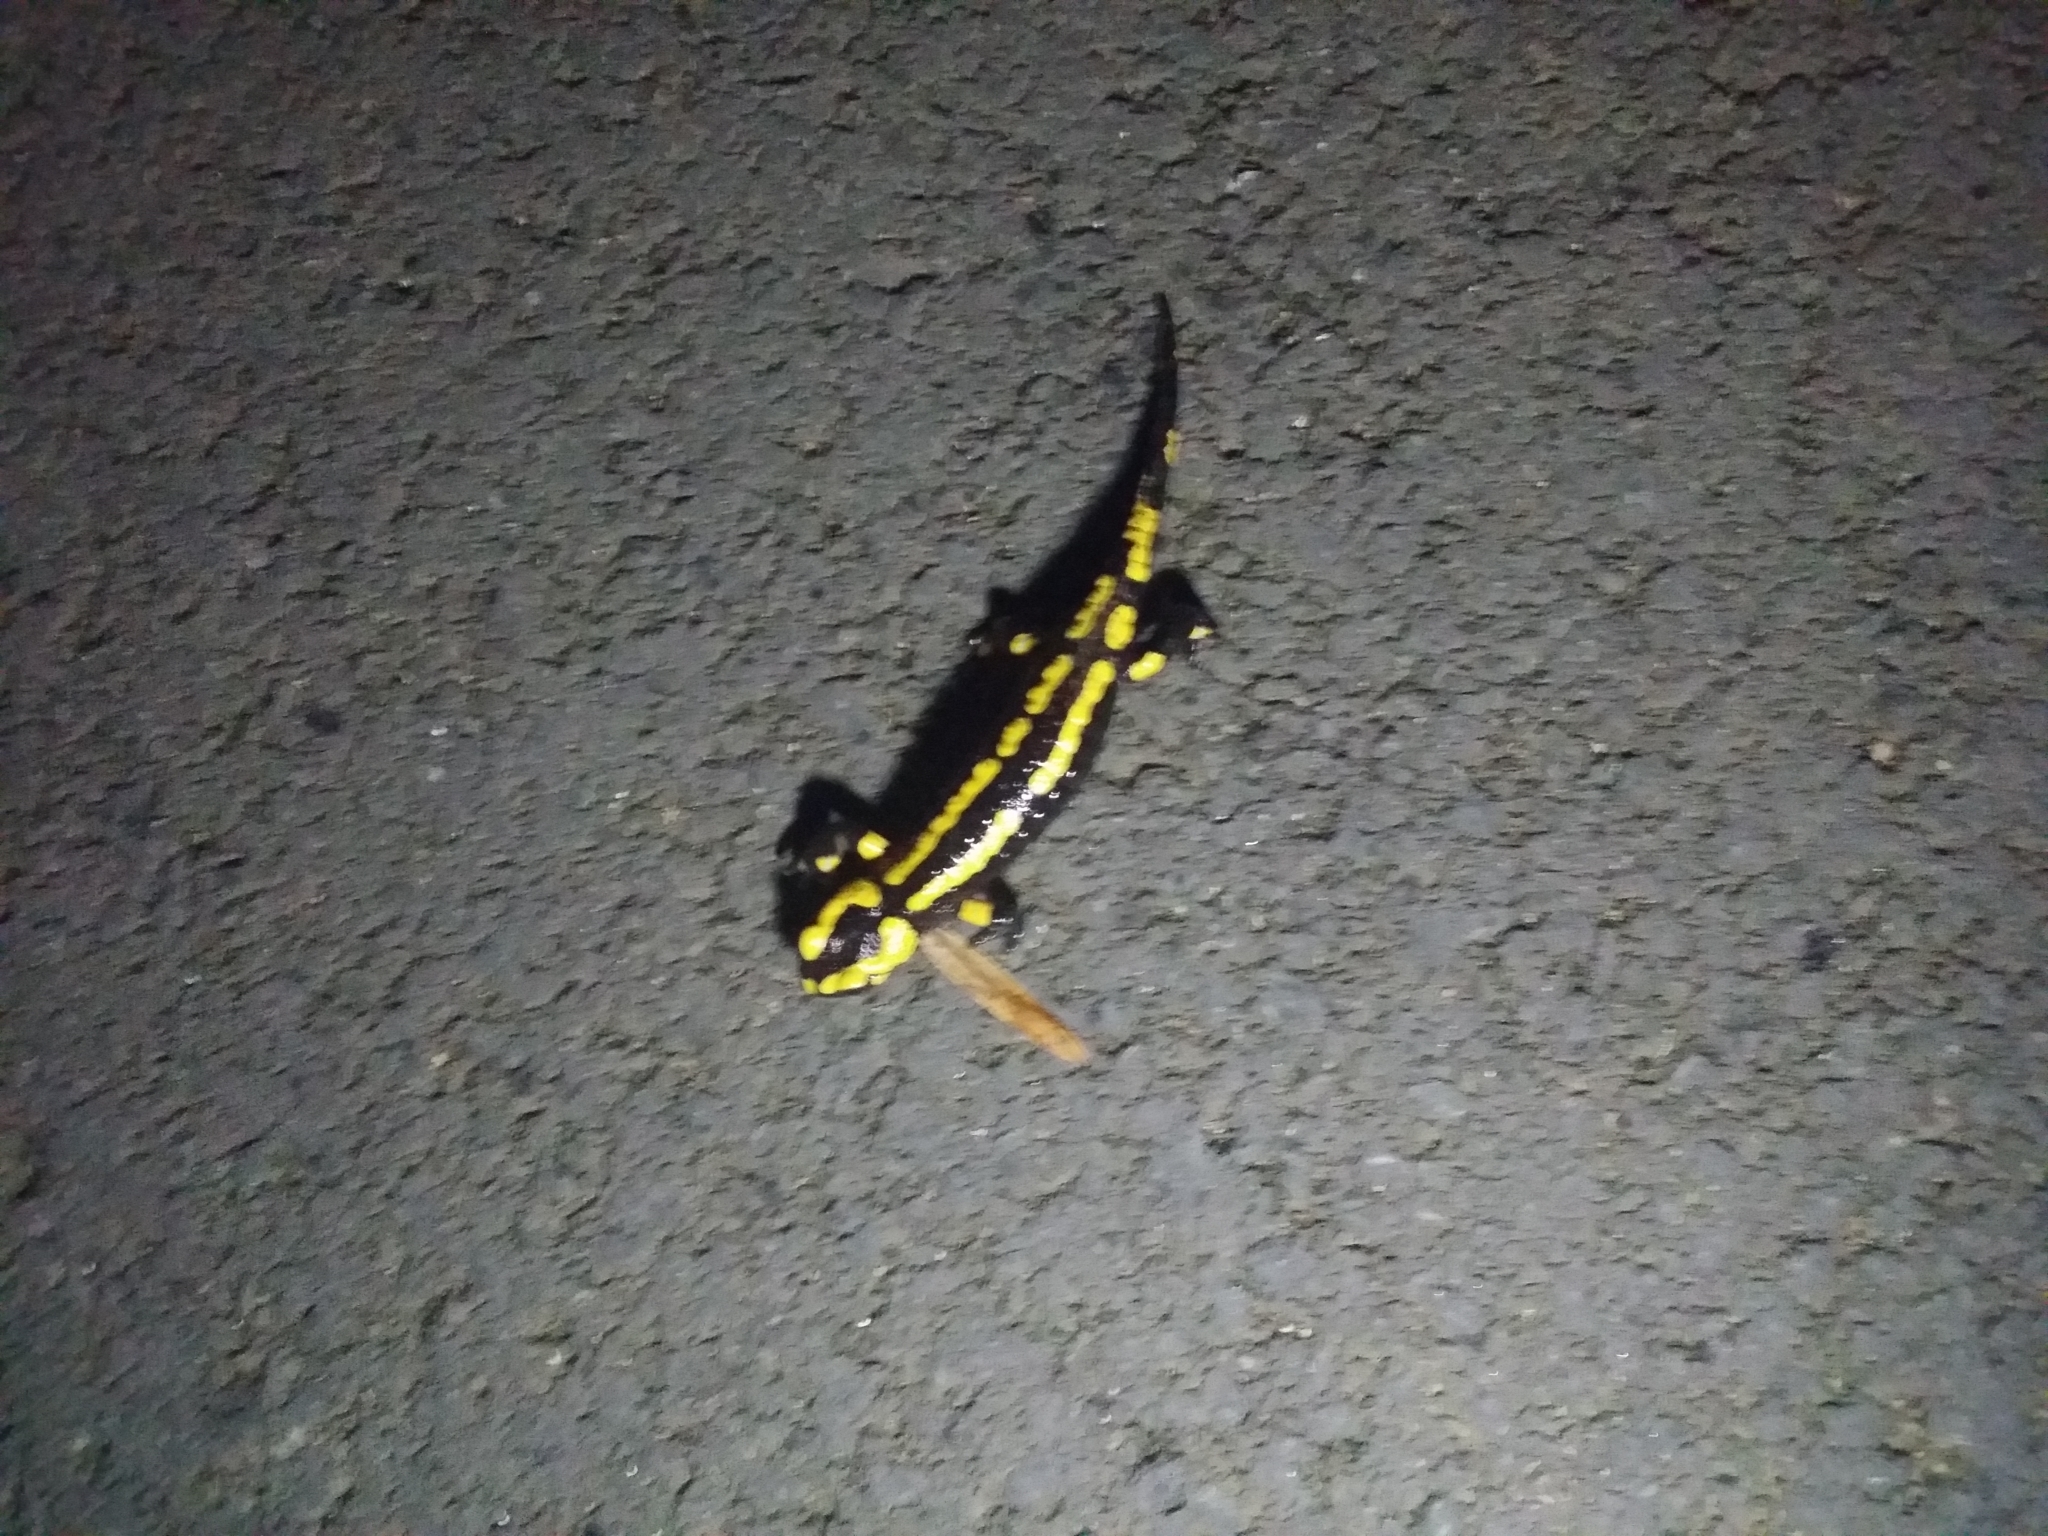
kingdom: Animalia
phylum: Chordata
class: Amphibia
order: Caudata
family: Salamandridae
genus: Salamandra
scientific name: Salamandra salamandra
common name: Fire salamander
